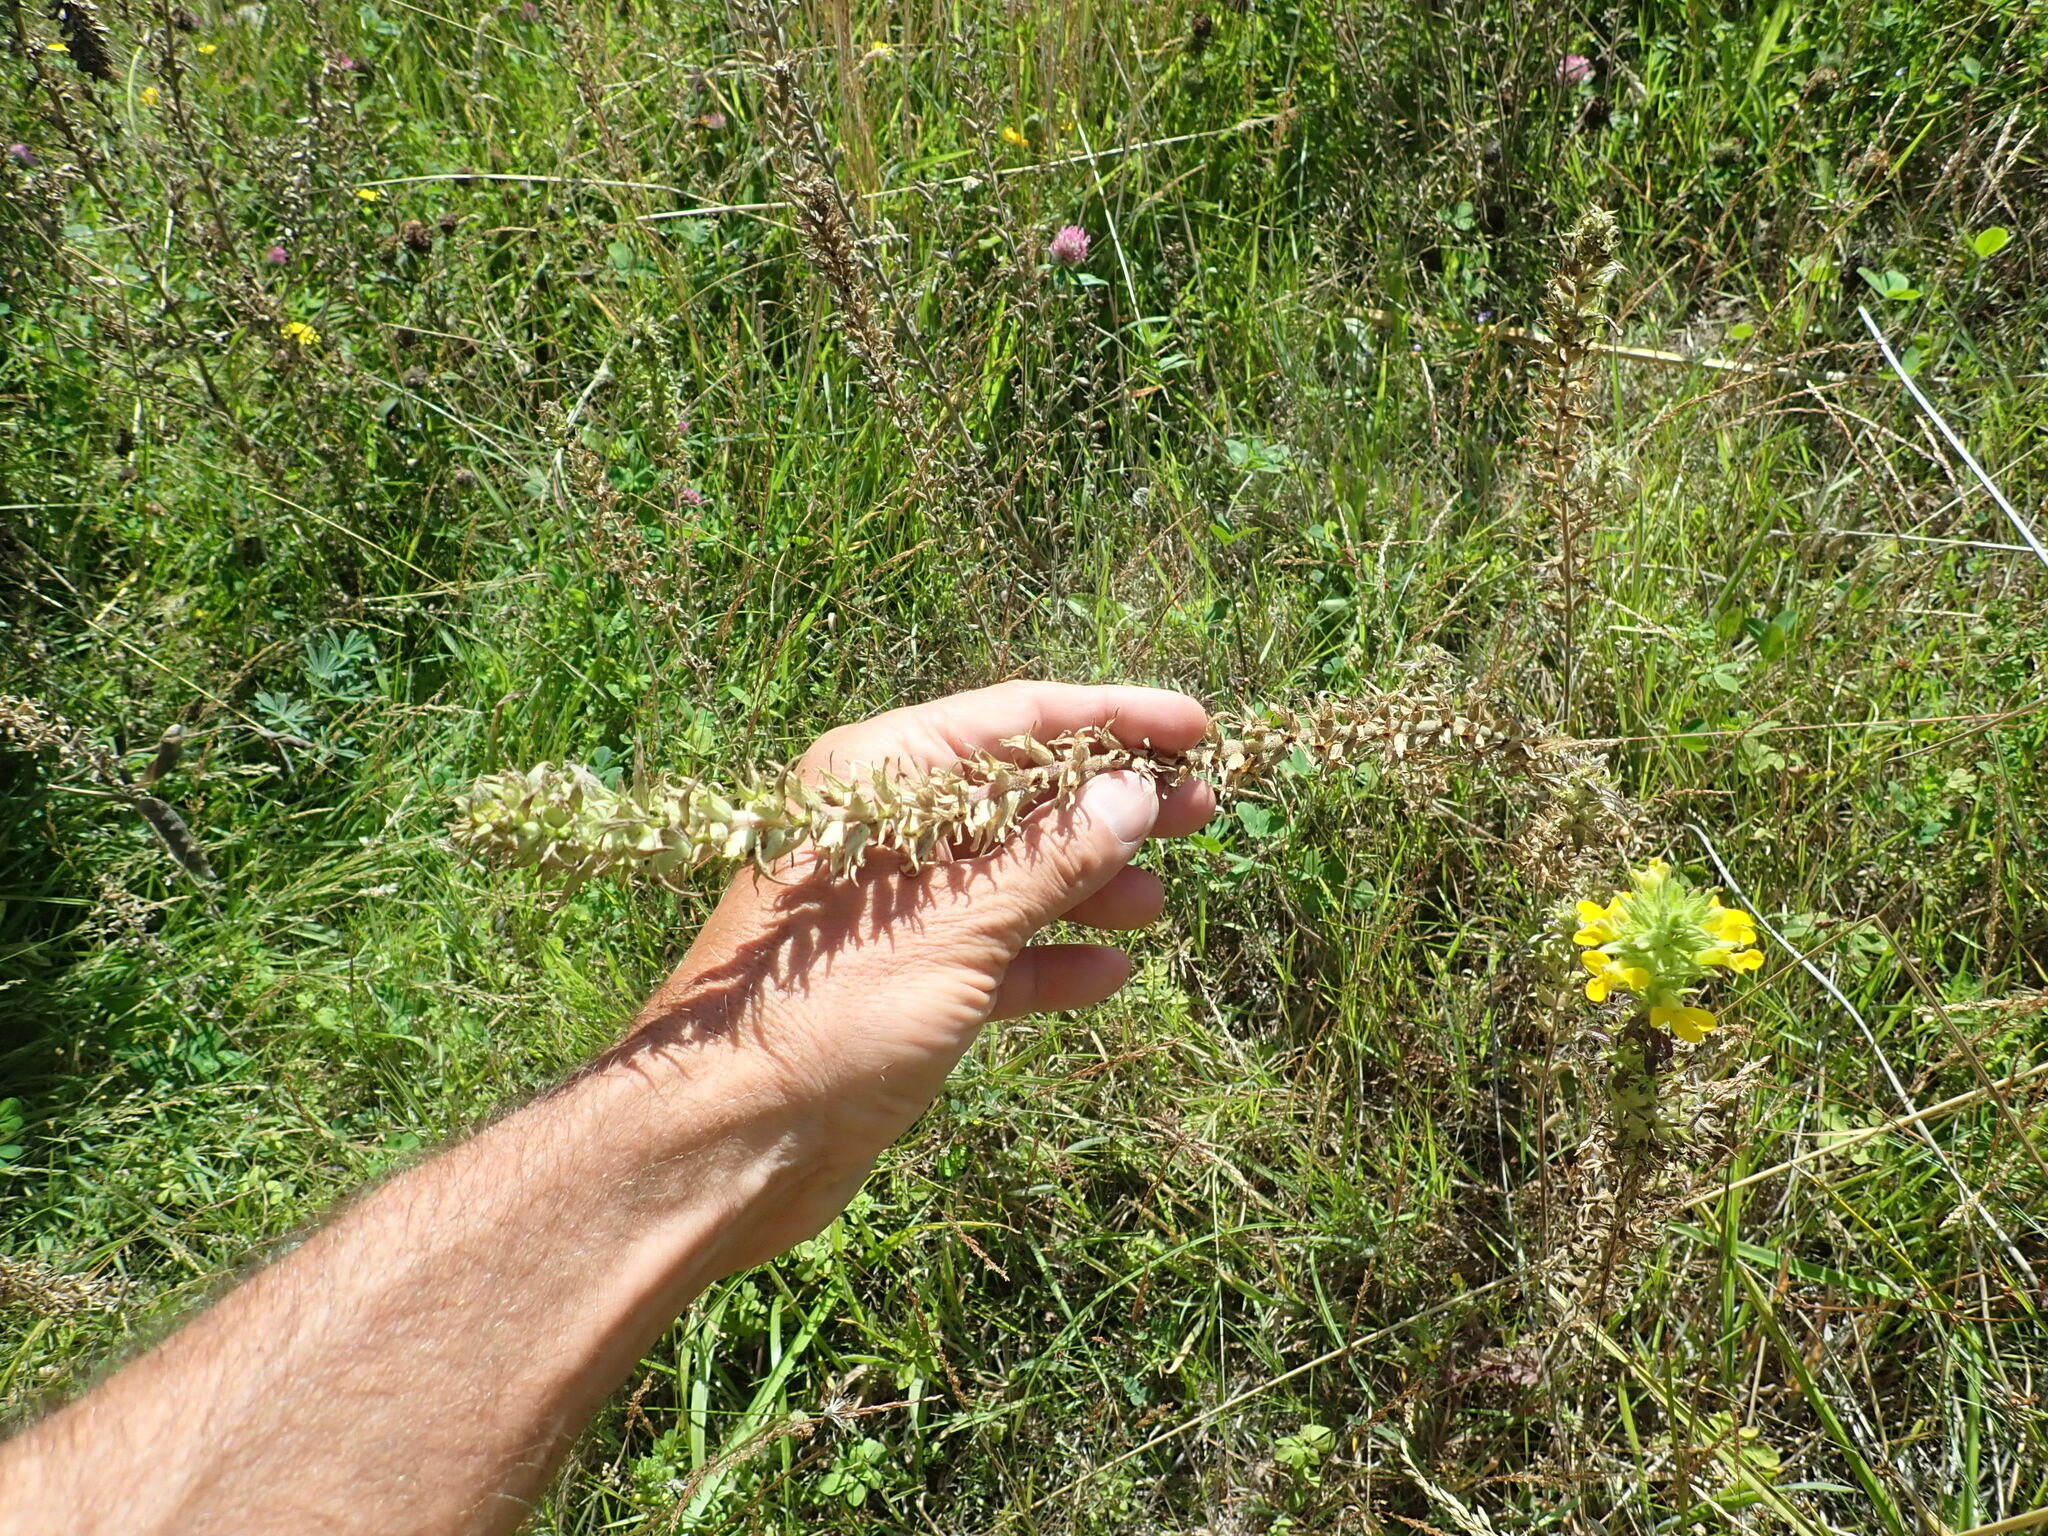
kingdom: Plantae
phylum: Tracheophyta
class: Magnoliopsida
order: Lamiales
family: Orobanchaceae
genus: Bellardia
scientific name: Bellardia viscosa
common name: Sticky parentucellia
